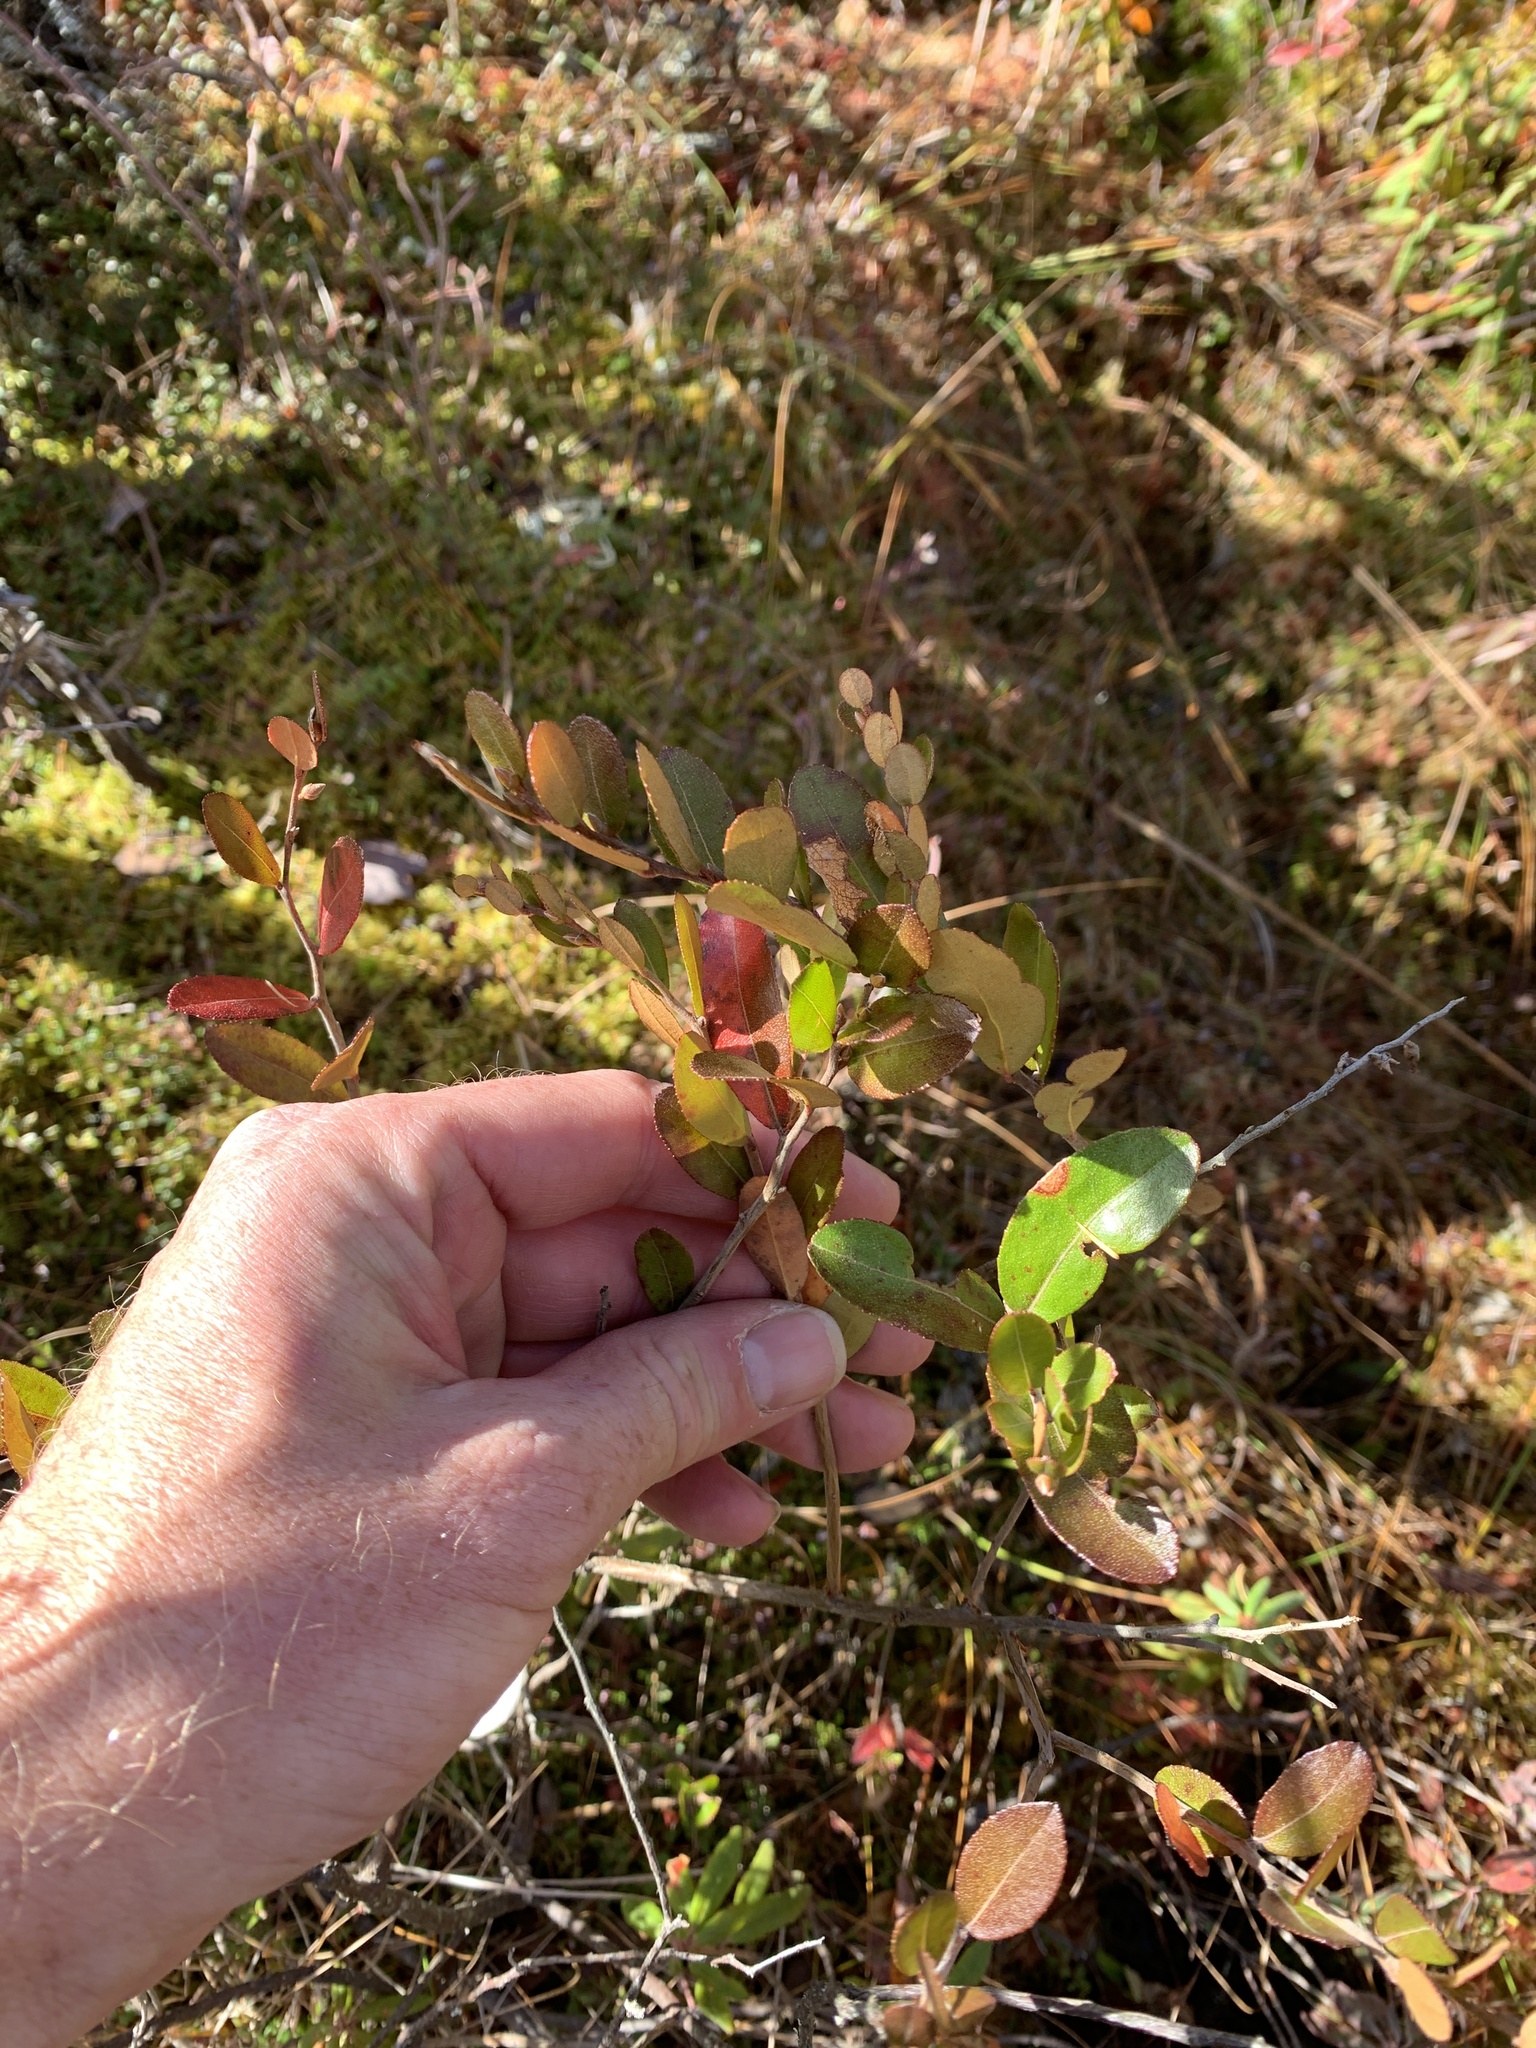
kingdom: Plantae
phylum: Tracheophyta
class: Magnoliopsida
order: Ericales
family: Ericaceae
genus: Chamaedaphne
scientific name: Chamaedaphne calyculata
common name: Leatherleaf
